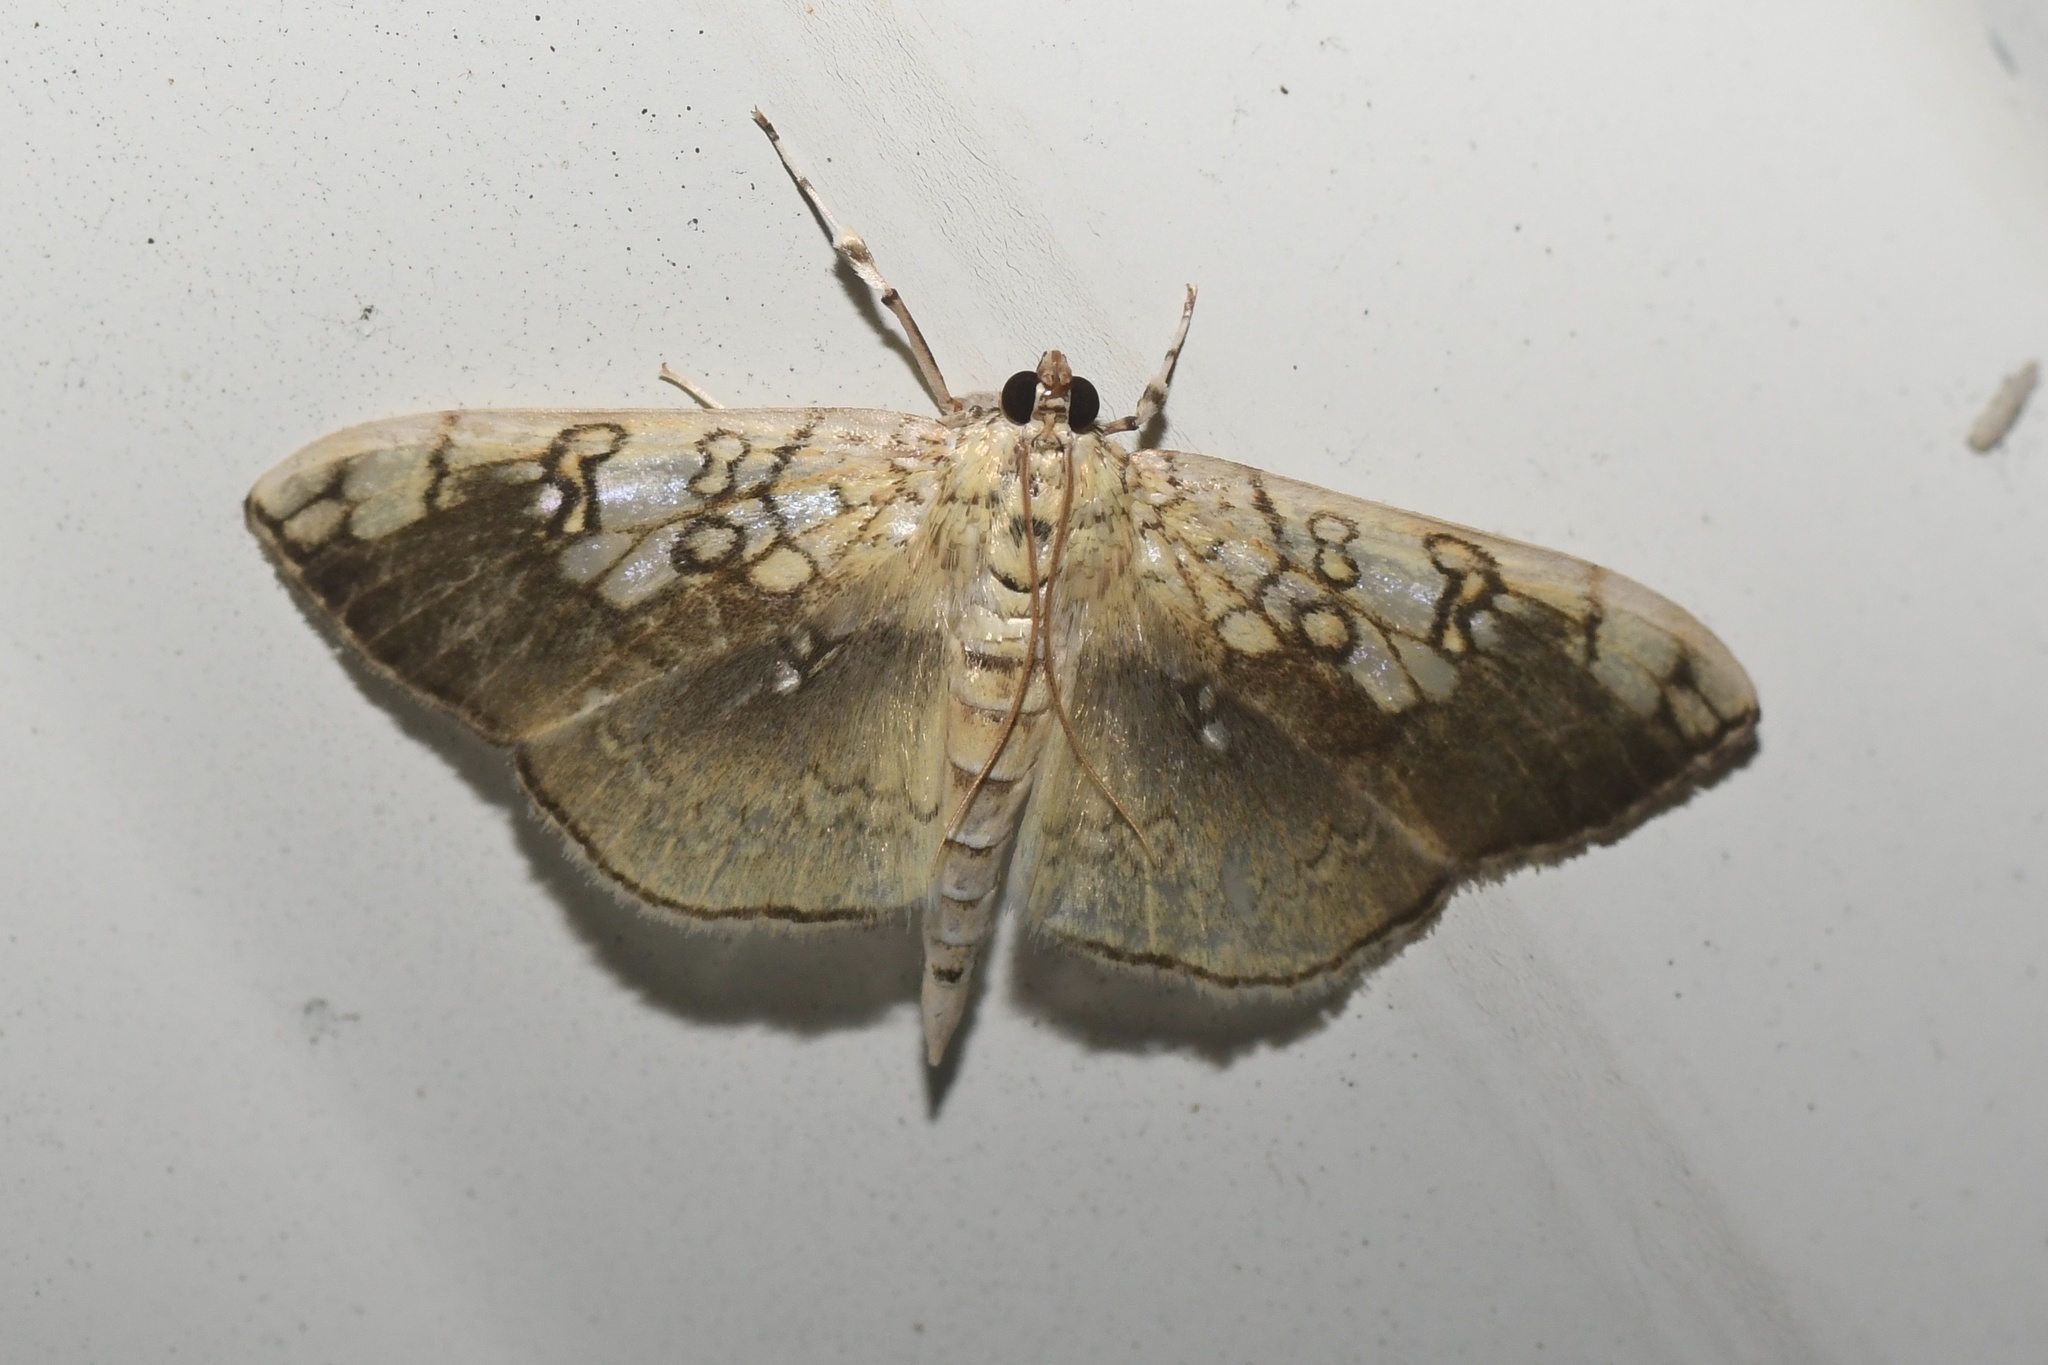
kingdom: Animalia
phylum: Arthropoda
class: Insecta
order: Lepidoptera
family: Crambidae
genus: Pantographa
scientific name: Pantographa limata
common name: Basswood leafroller moth
